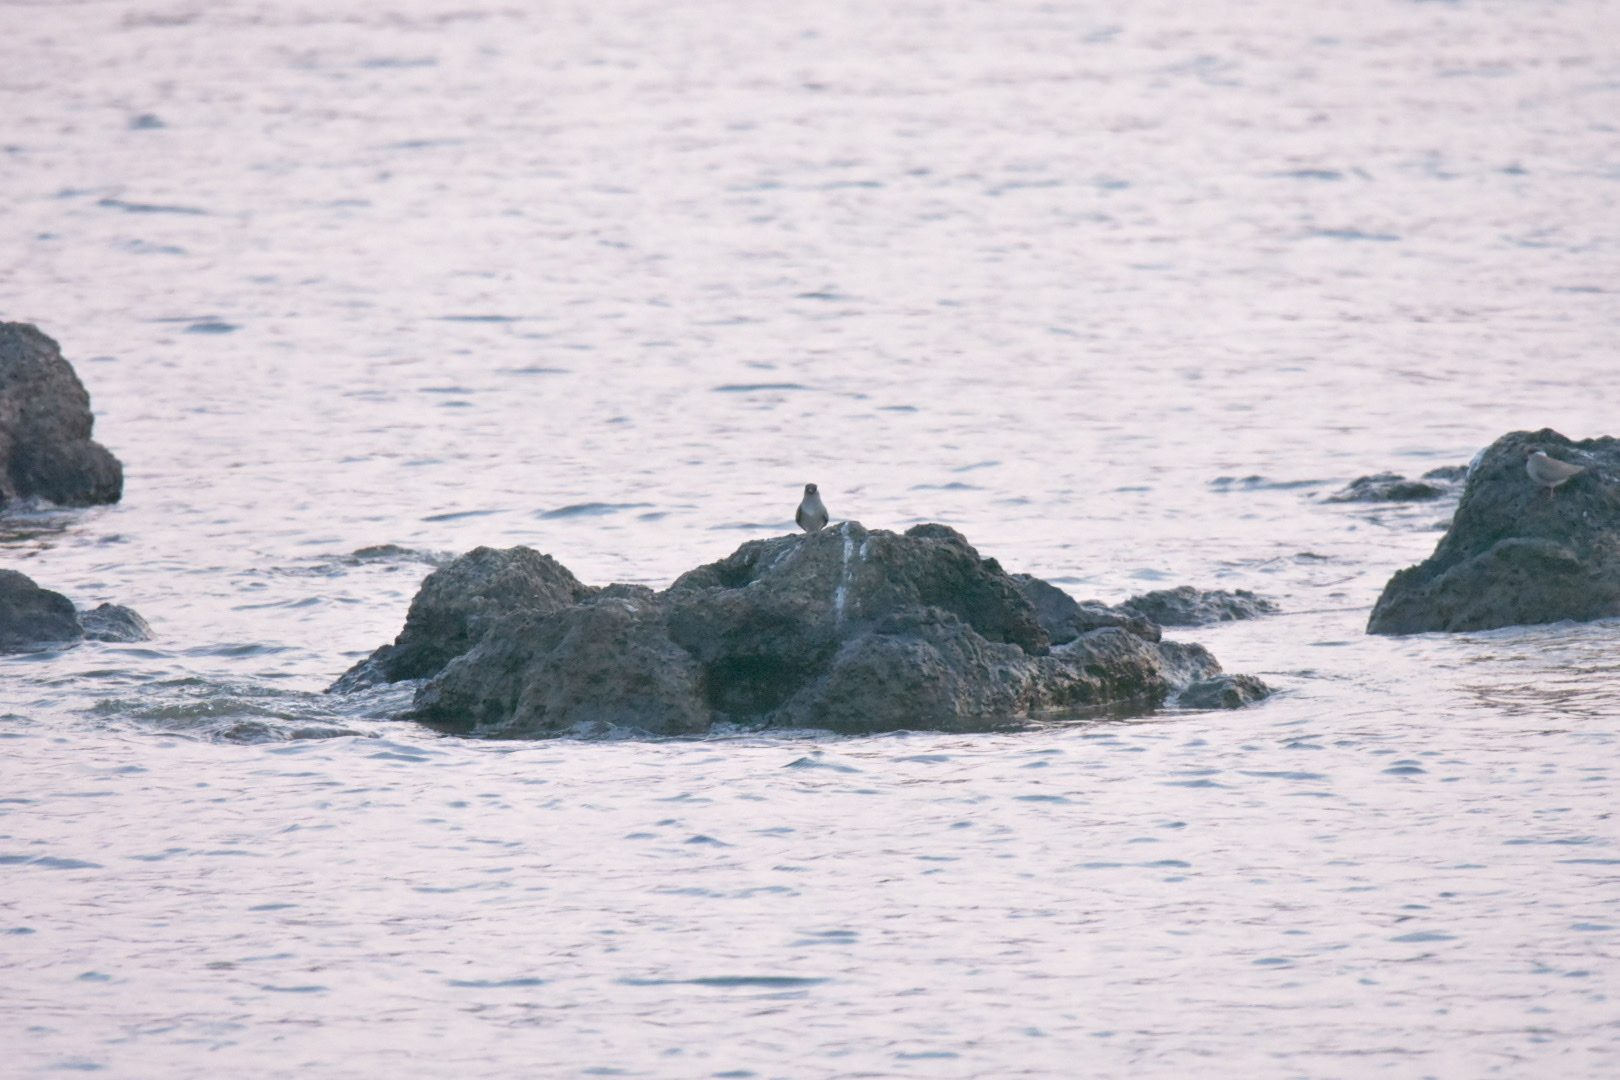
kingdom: Animalia
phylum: Chordata
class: Aves
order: Charadriiformes
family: Glareolidae
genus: Glareola
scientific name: Glareola nuchalis
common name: Rock pratincole
